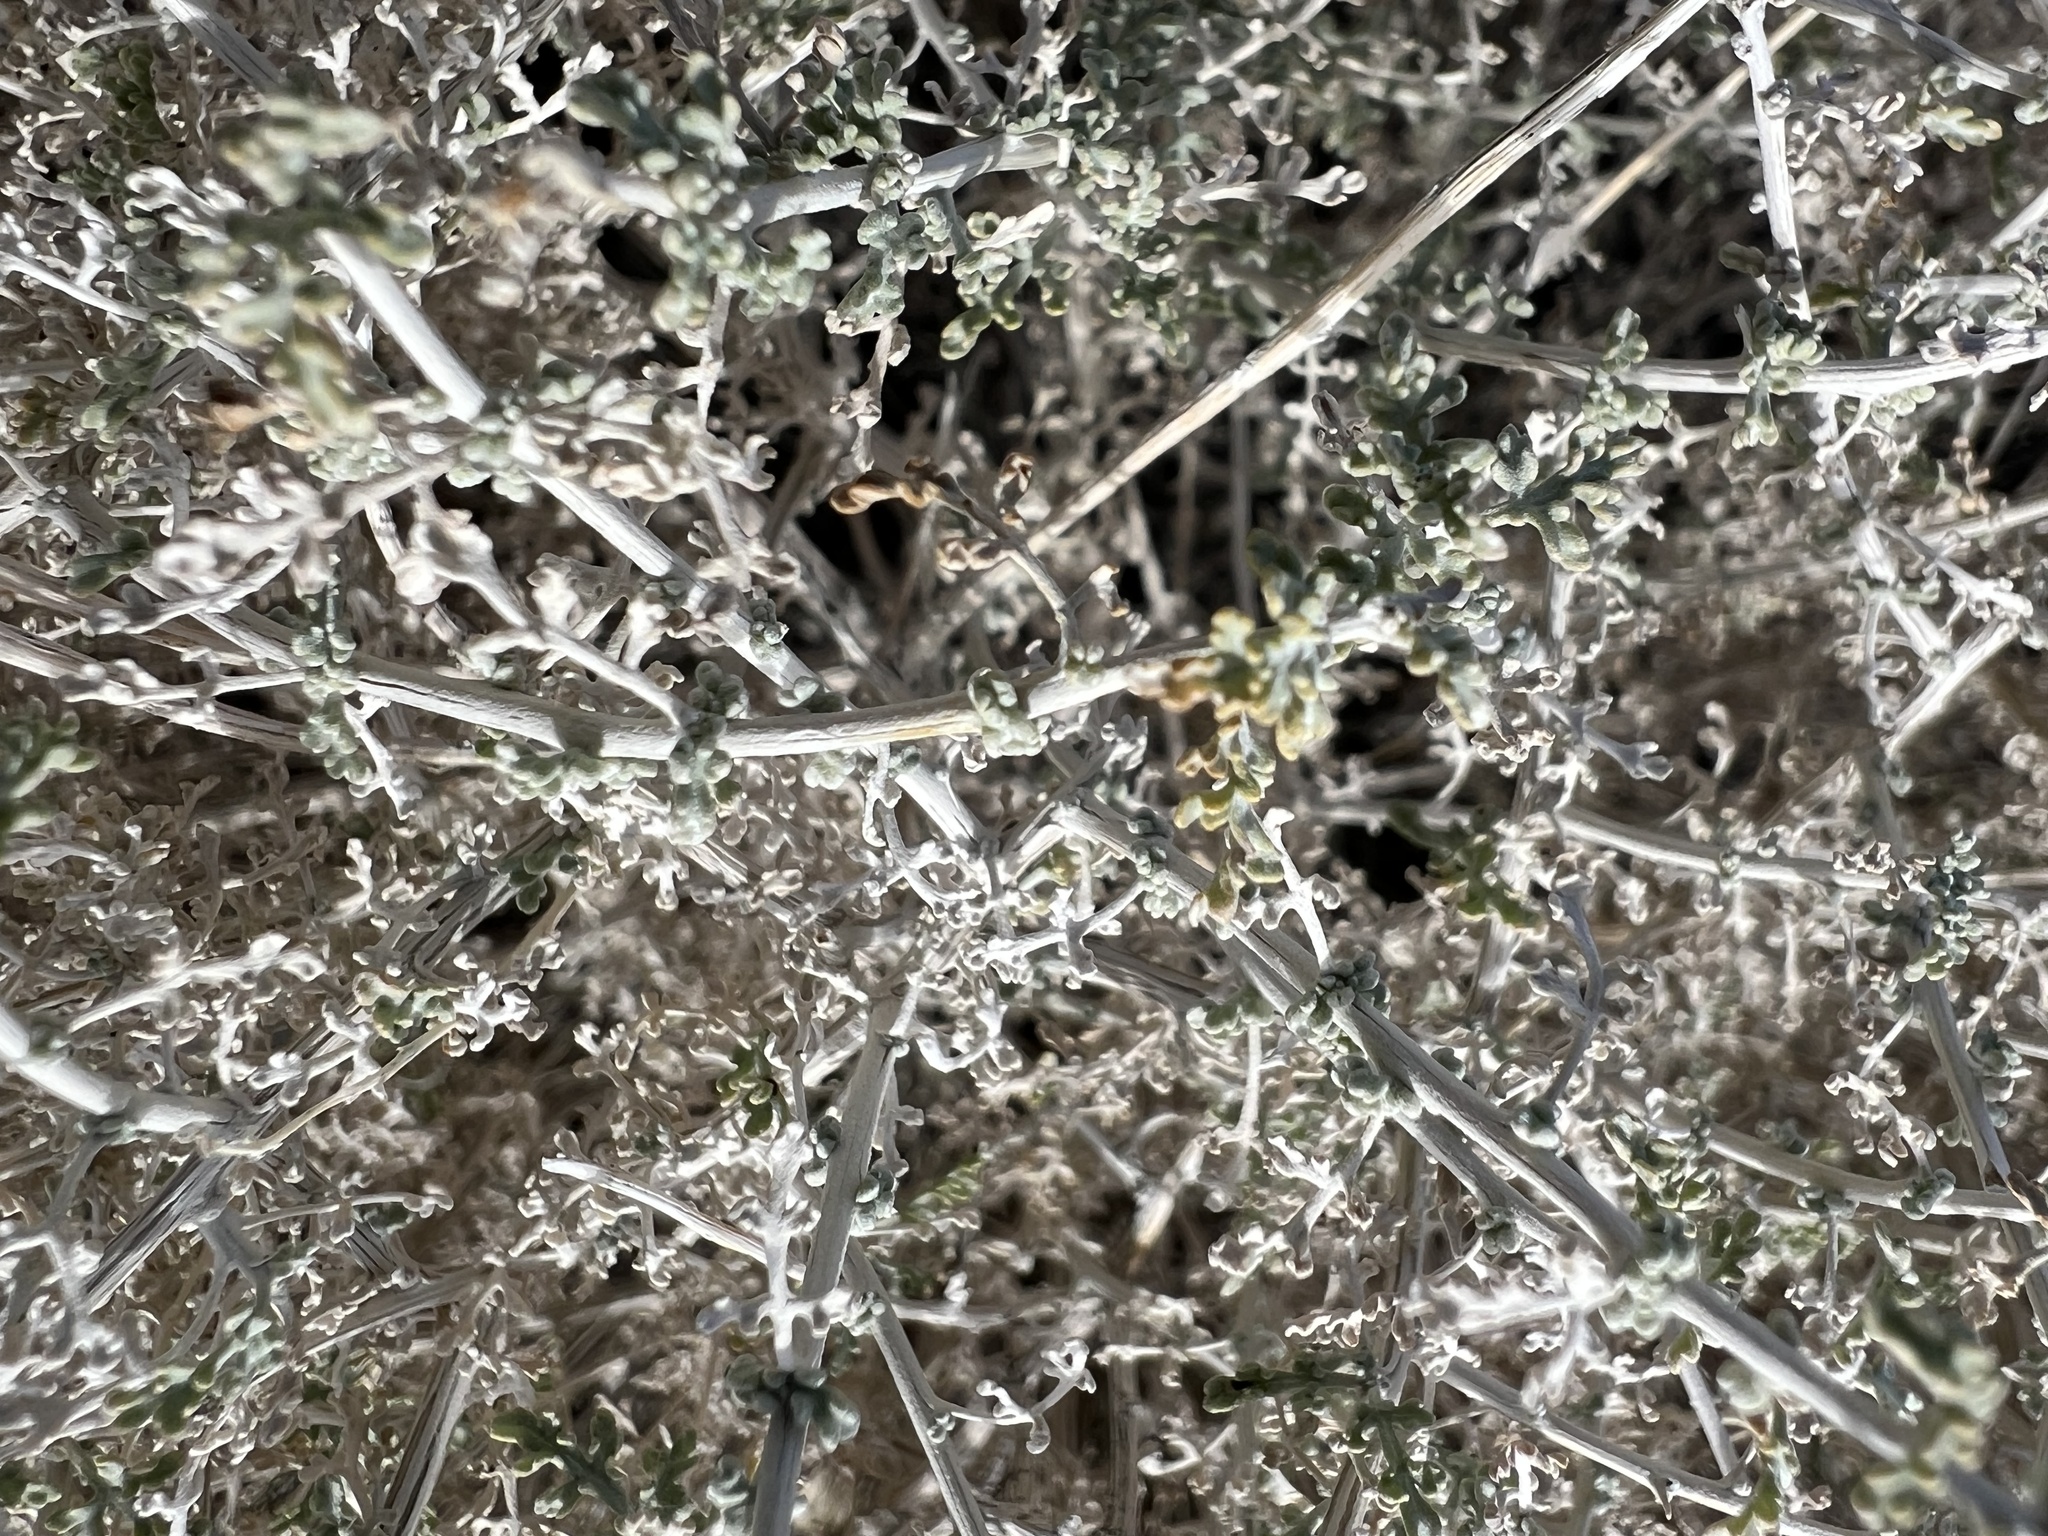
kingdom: Plantae
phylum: Tracheophyta
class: Magnoliopsida
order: Asterales
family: Asteraceae
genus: Ambrosia
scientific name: Ambrosia dumosa
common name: Bur-sage
